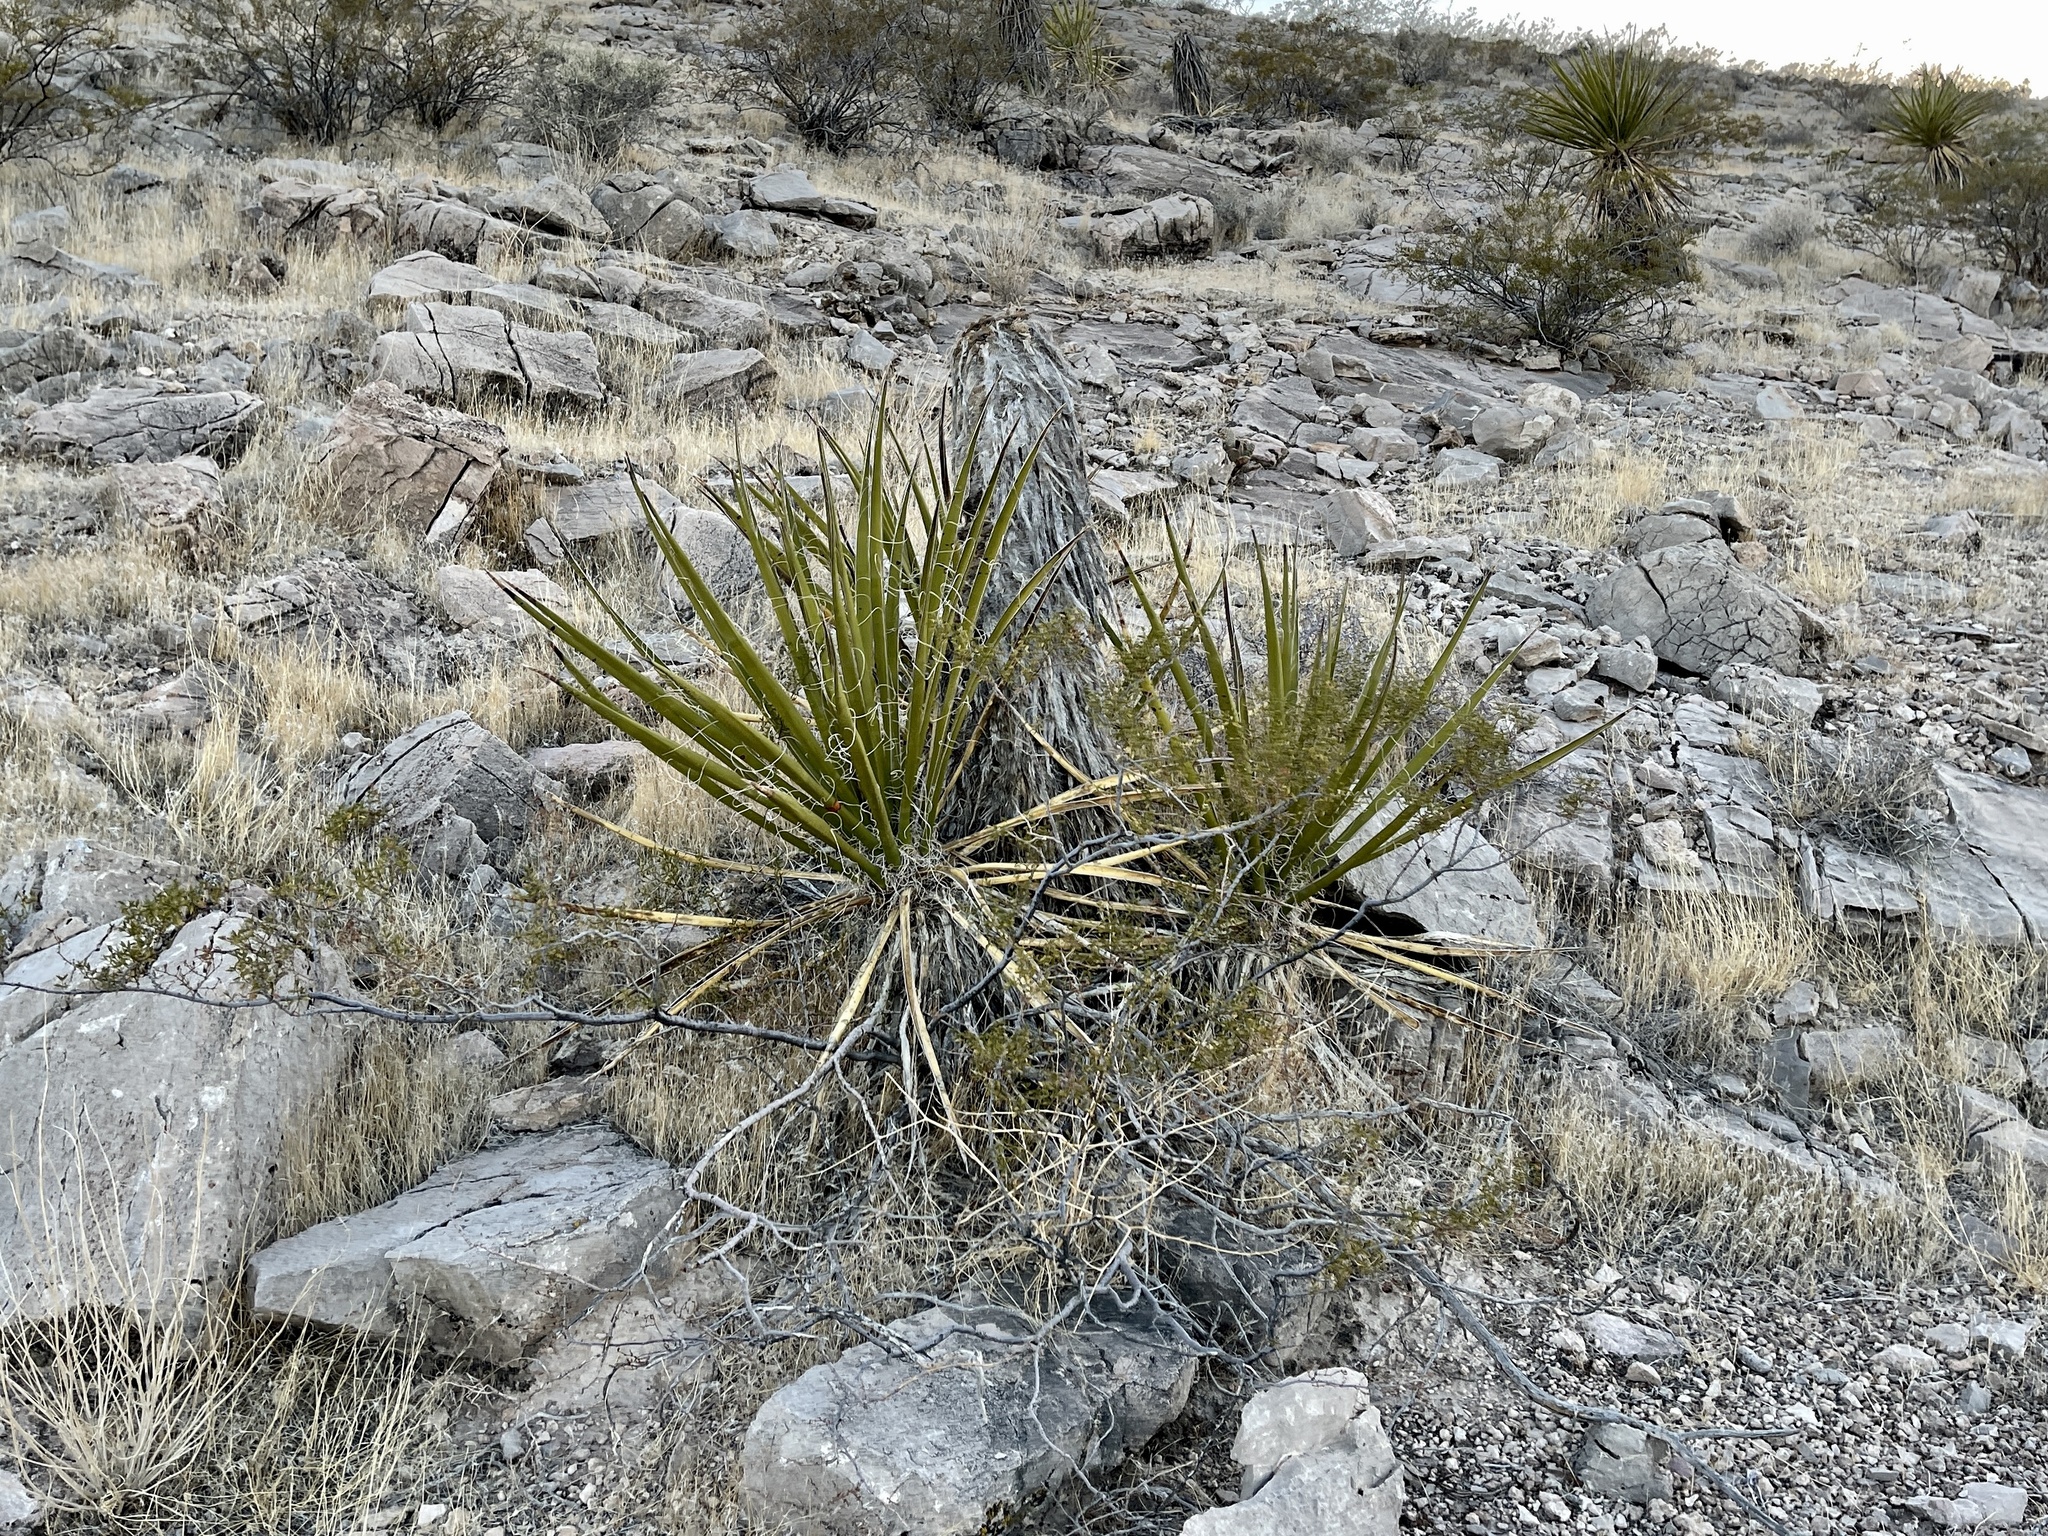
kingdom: Plantae
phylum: Tracheophyta
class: Liliopsida
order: Asparagales
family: Asparagaceae
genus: Yucca
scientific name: Yucca schidigera
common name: Mojave yucca
